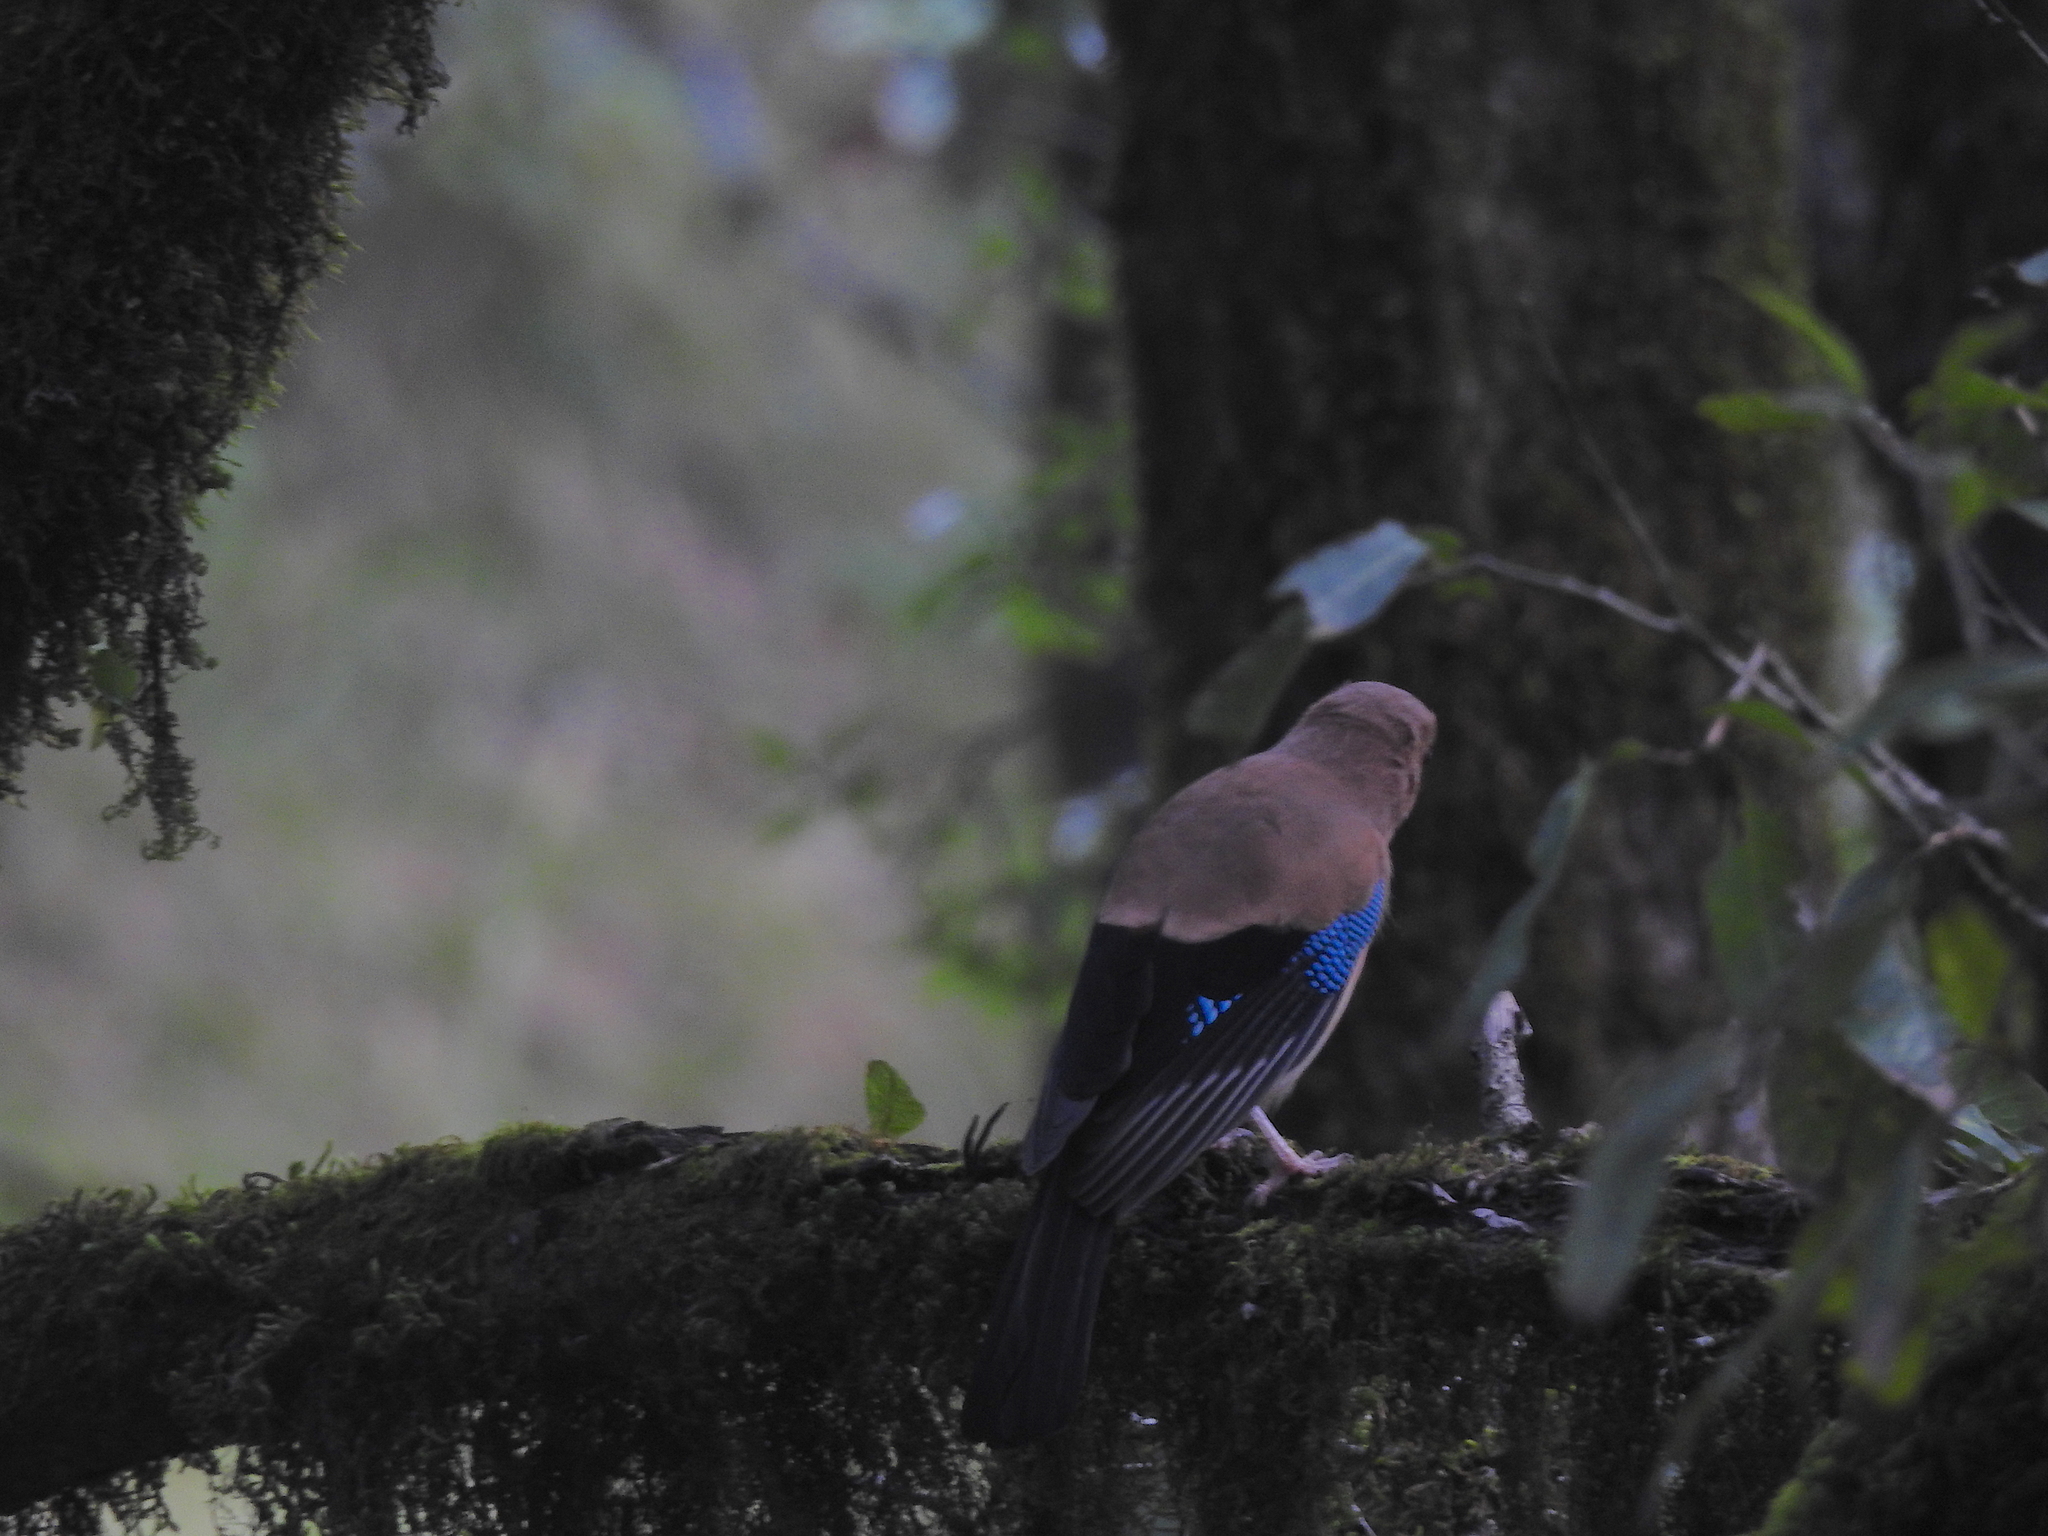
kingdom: Animalia
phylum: Chordata
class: Aves
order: Passeriformes
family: Corvidae
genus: Garrulus
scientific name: Garrulus glandarius
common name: Eurasian jay
